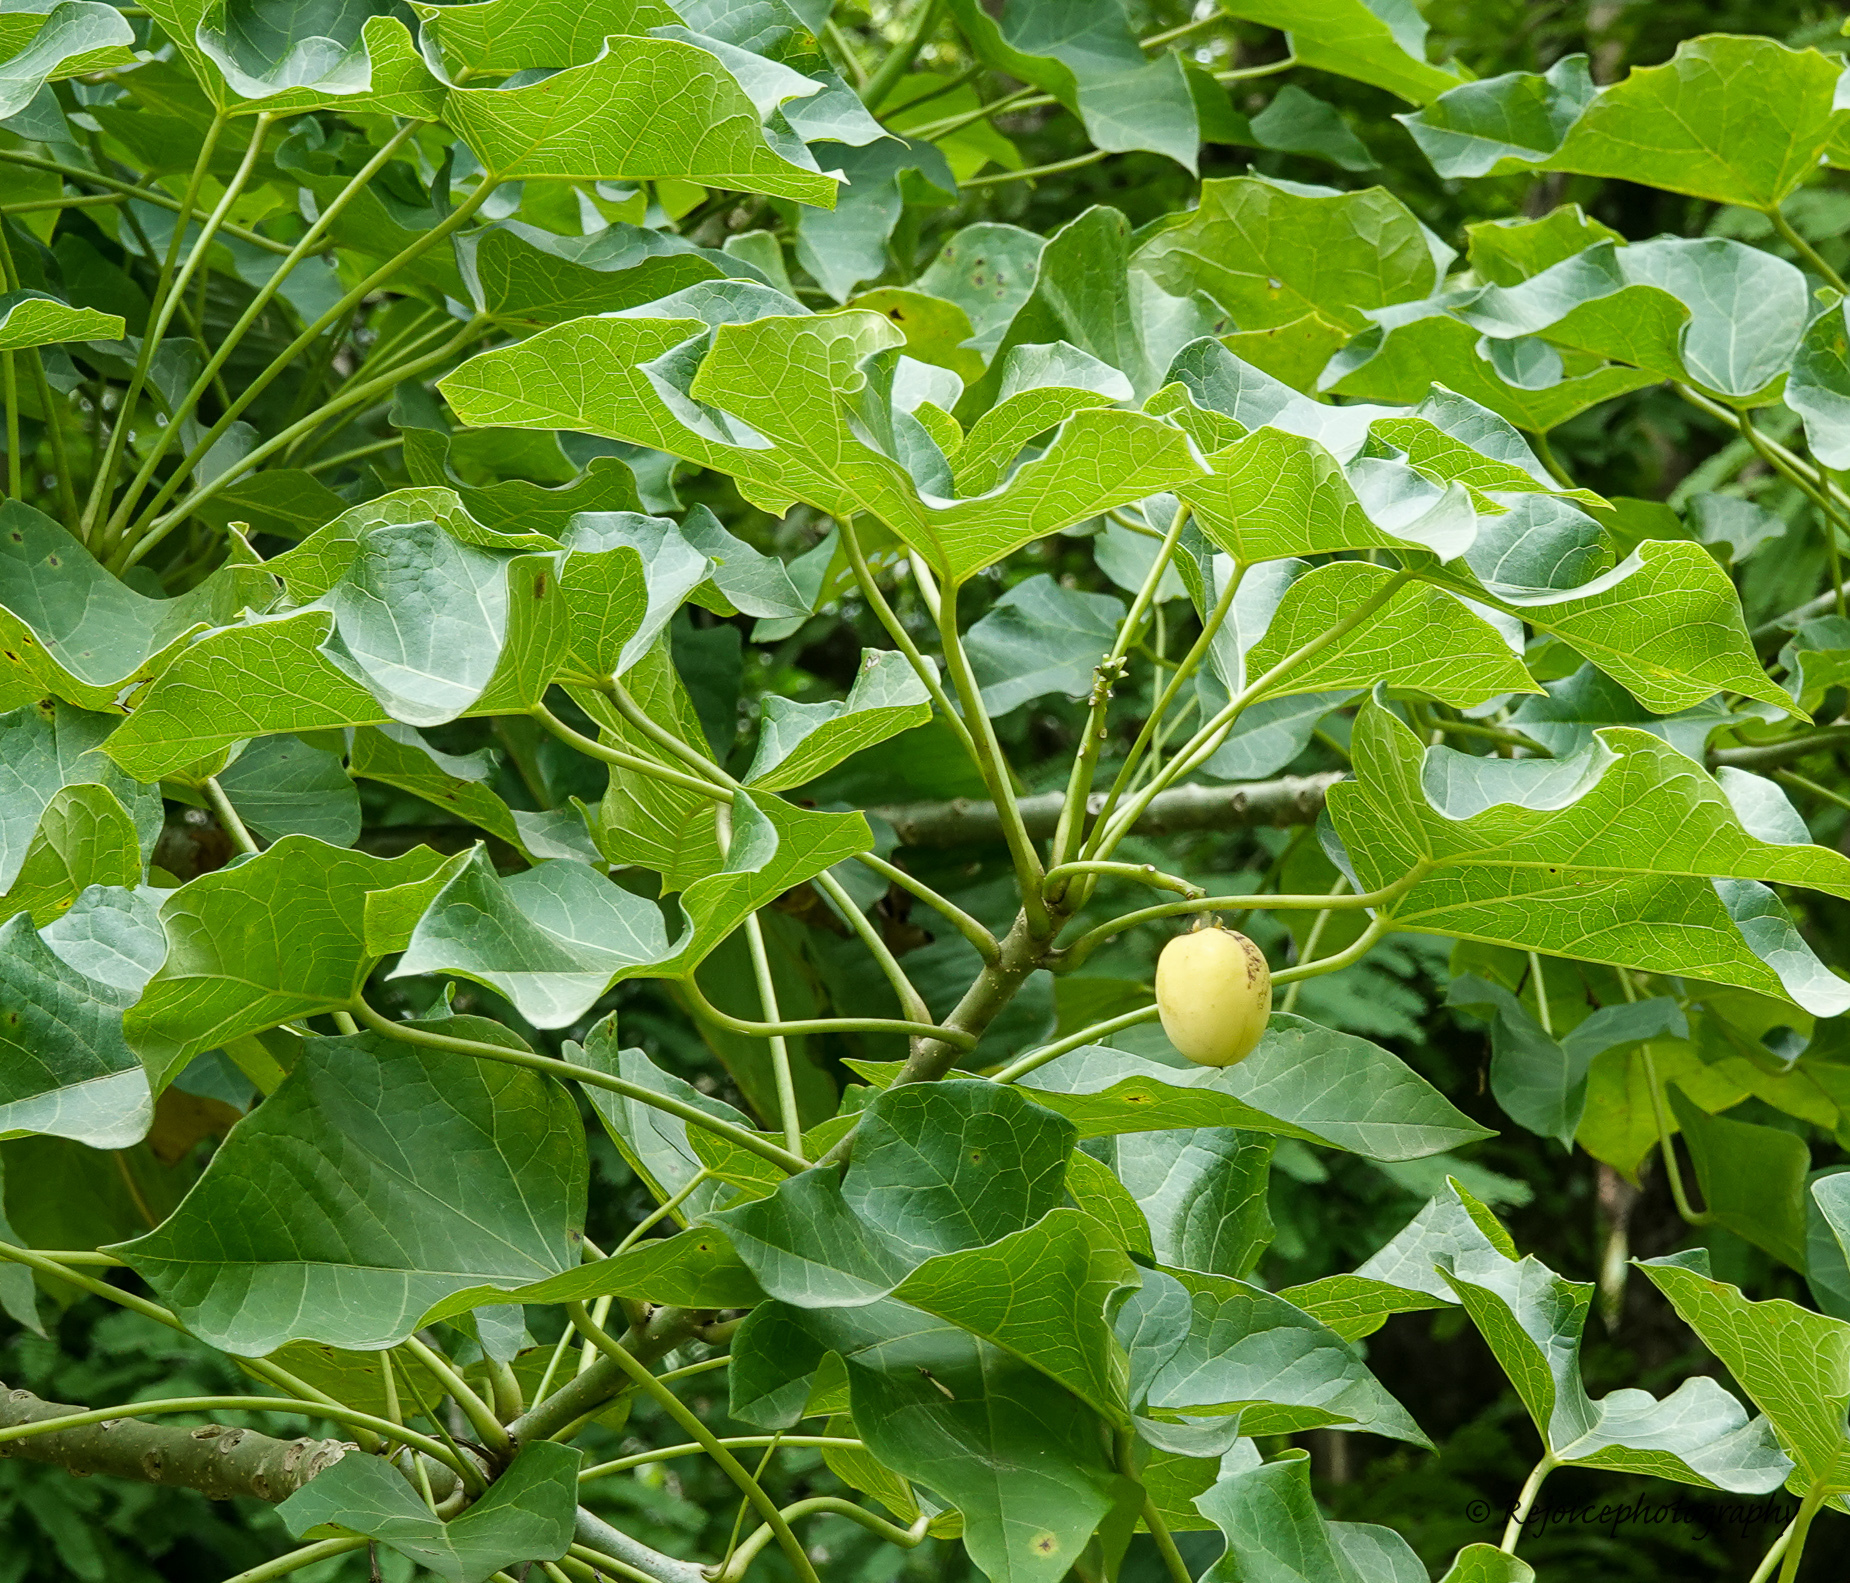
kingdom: Plantae
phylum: Tracheophyta
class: Magnoliopsida
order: Malpighiales
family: Euphorbiaceae
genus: Jatropha
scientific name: Jatropha curcas
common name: Barbados nut
